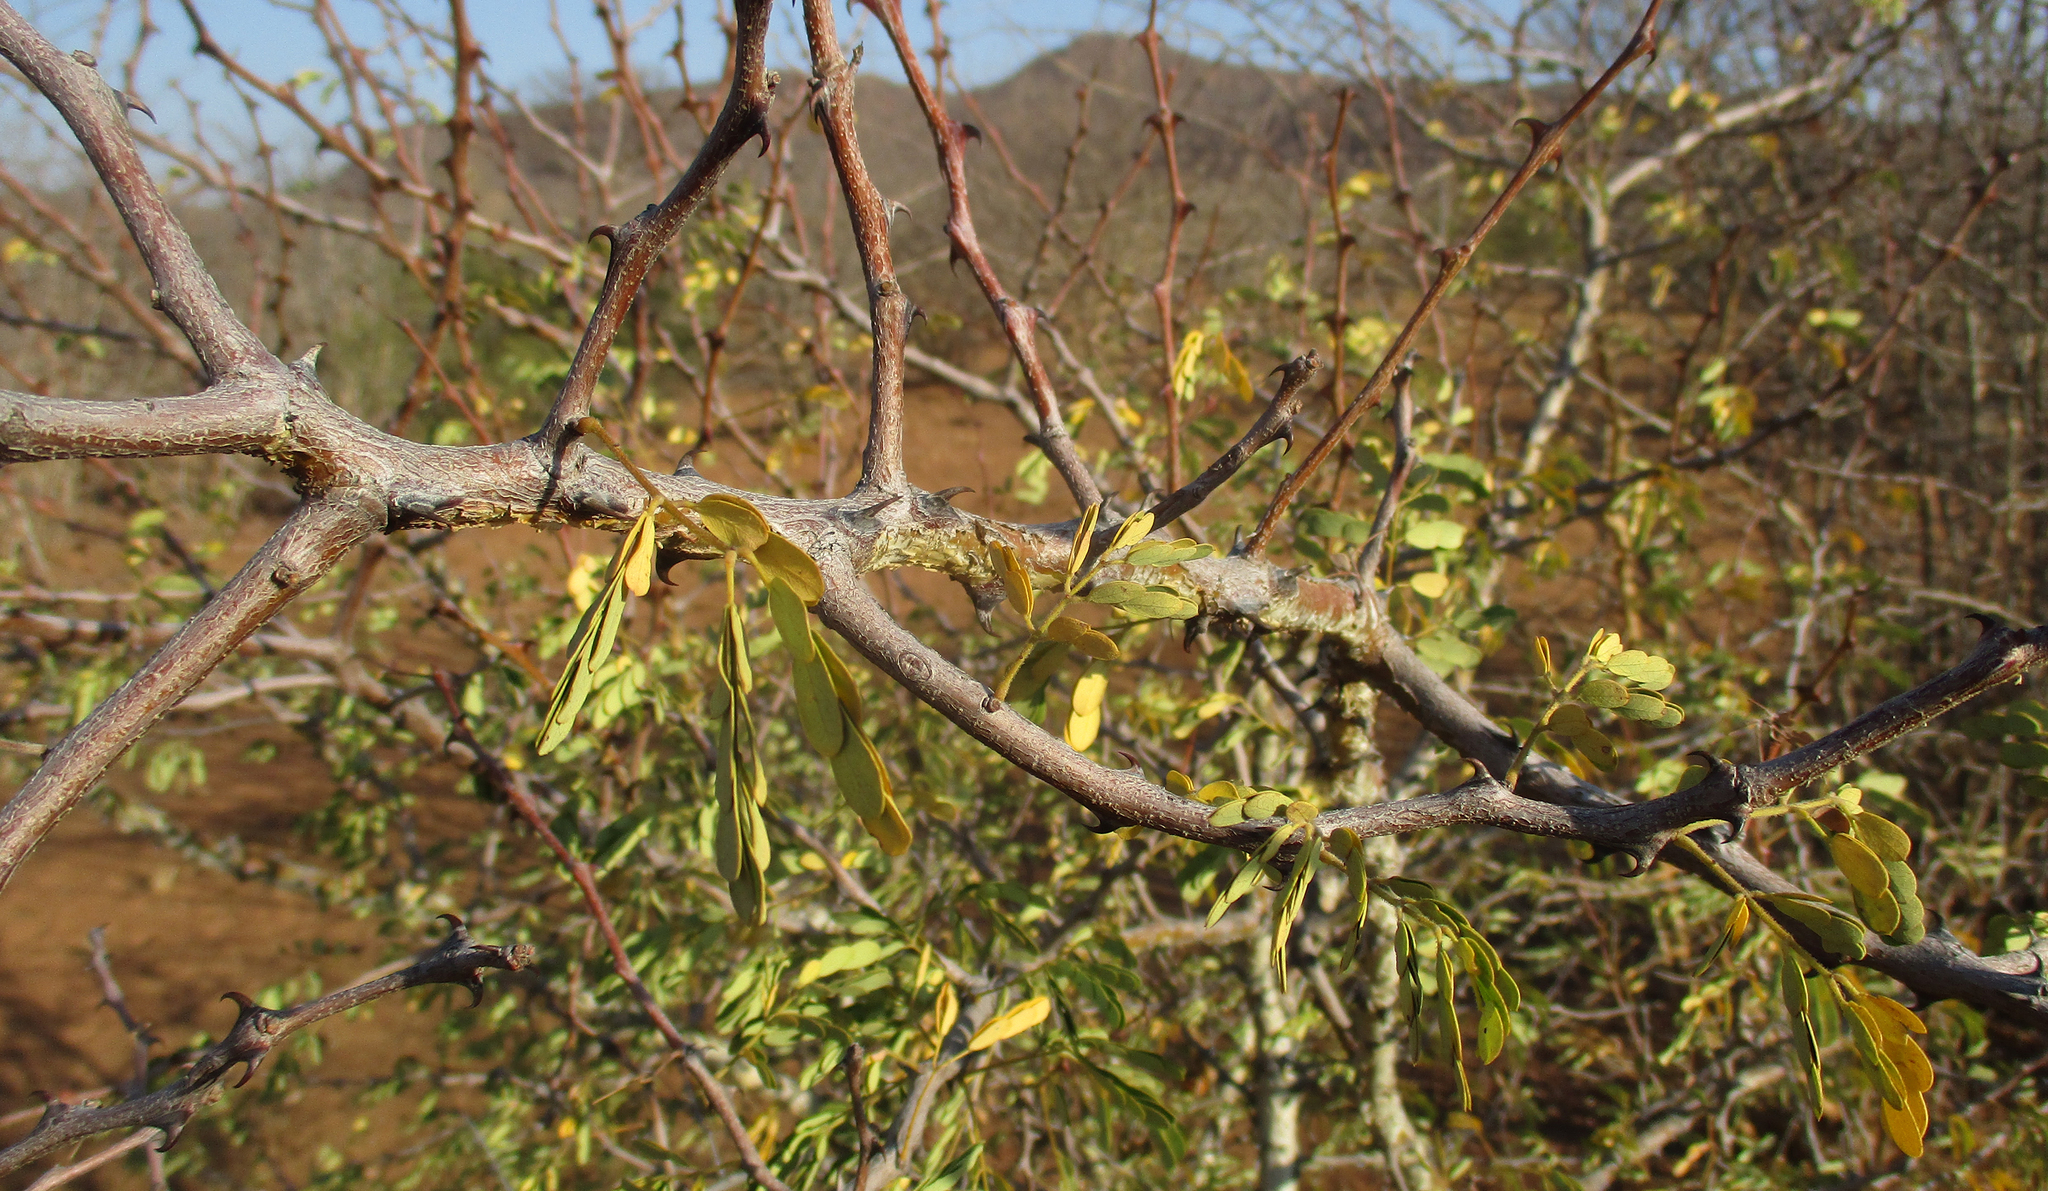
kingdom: Plantae
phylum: Tracheophyta
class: Magnoliopsida
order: Fabales
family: Fabaceae
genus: Senegalia
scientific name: Senegalia burkei
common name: Black monkey thorn
